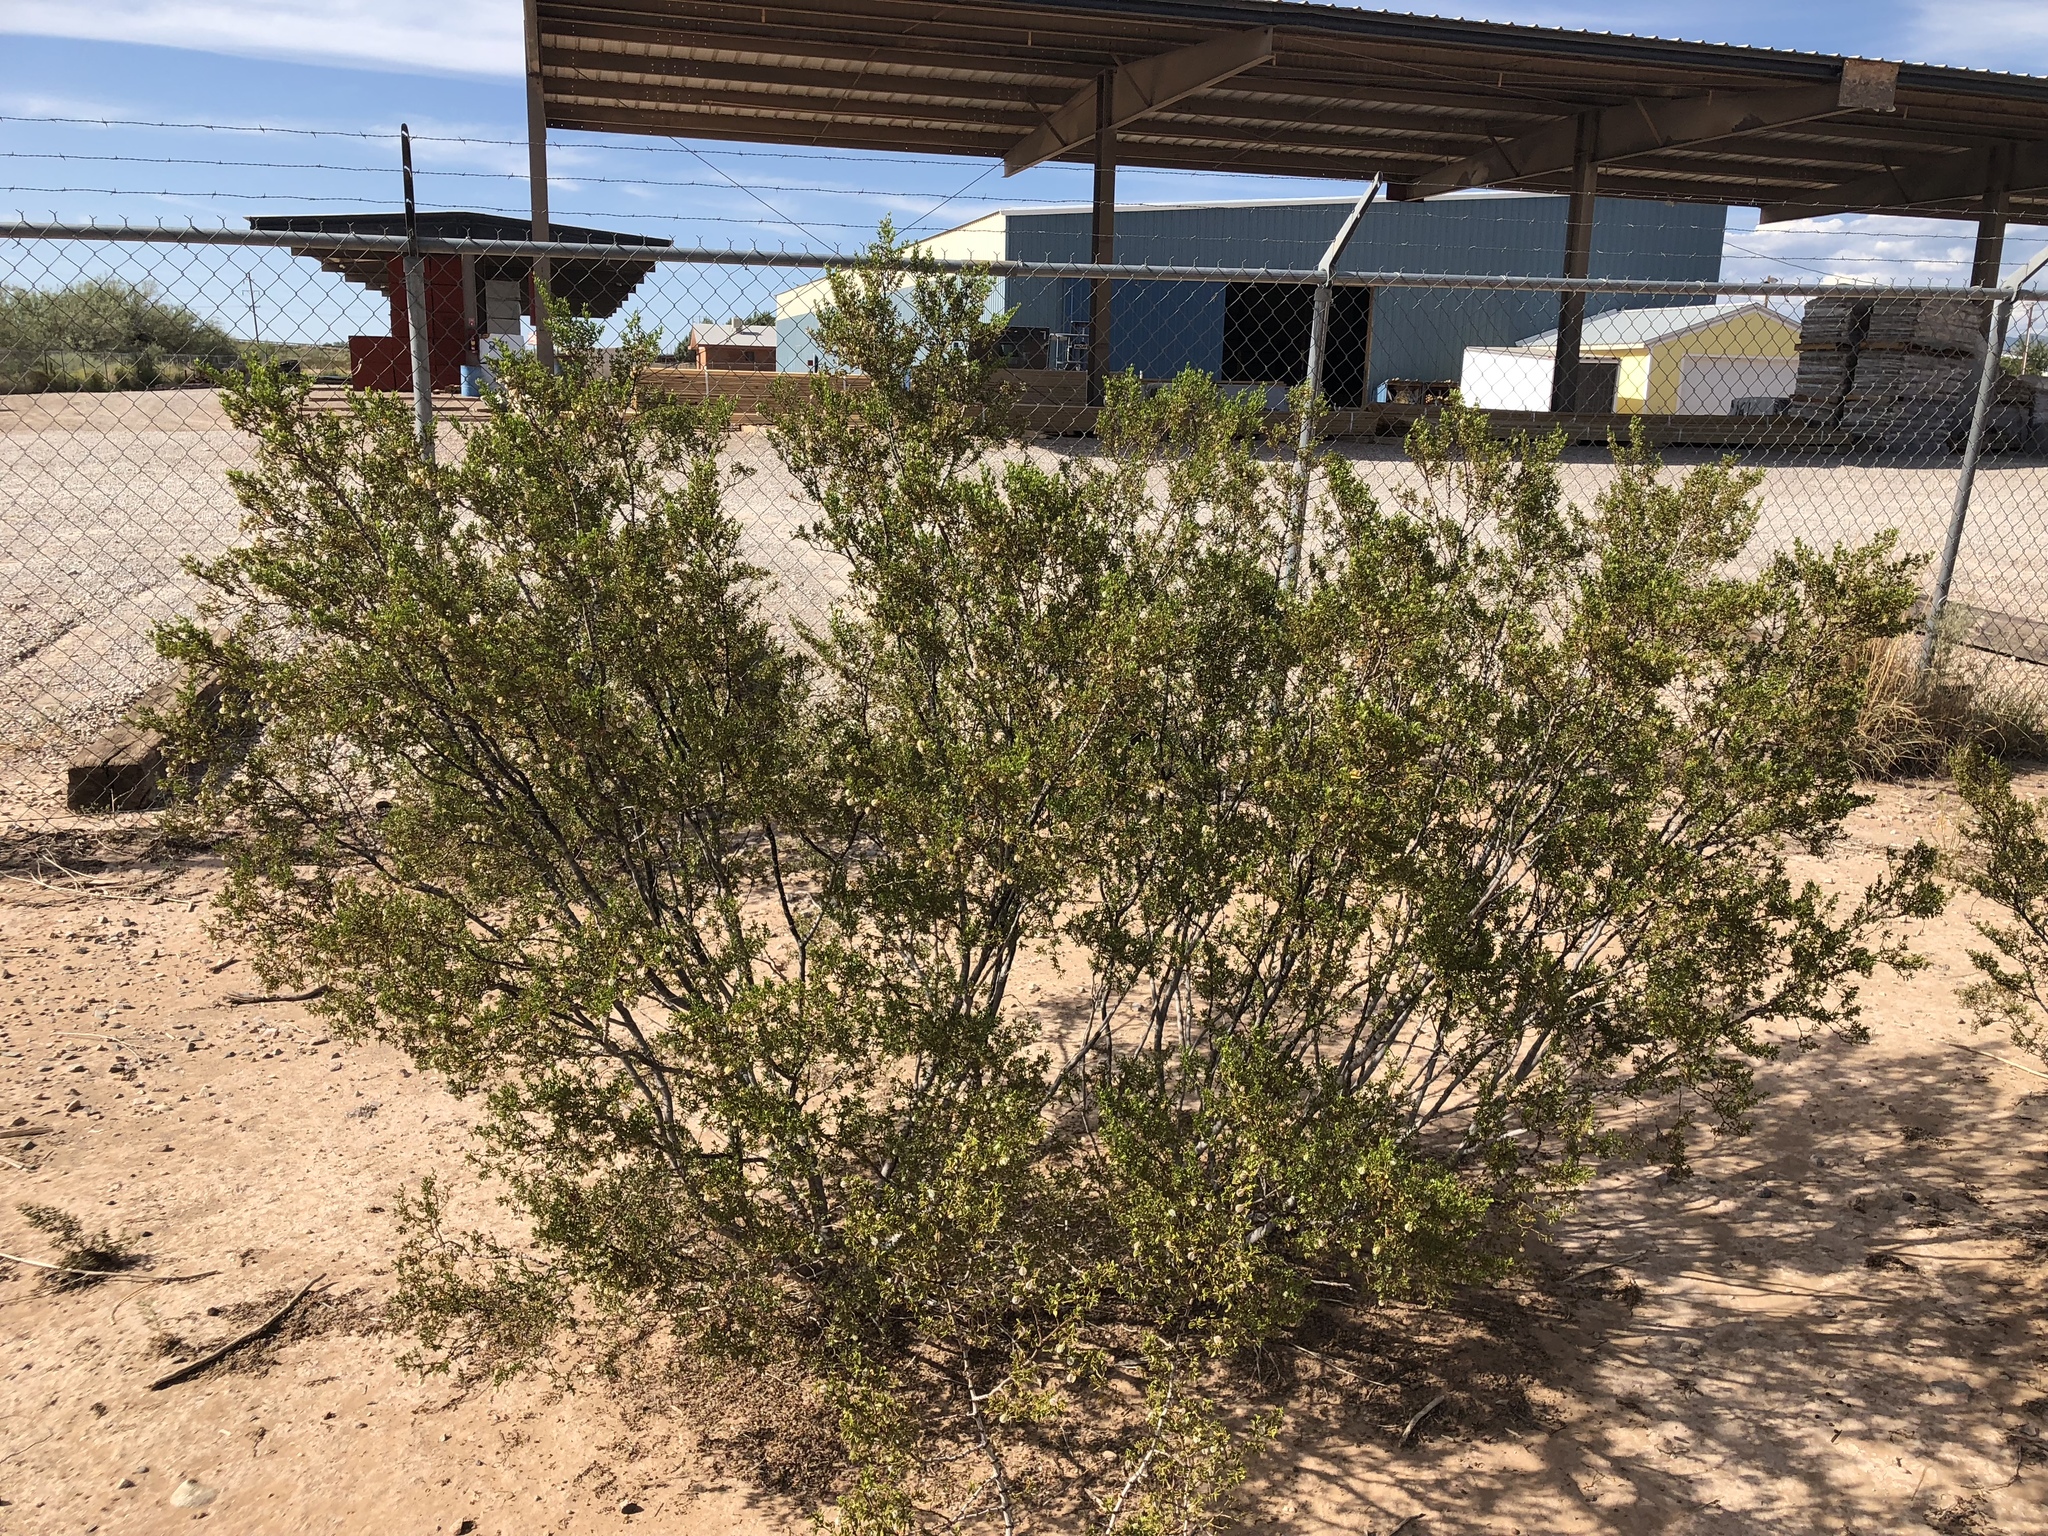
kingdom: Plantae
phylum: Tracheophyta
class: Magnoliopsida
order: Zygophyllales
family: Zygophyllaceae
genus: Larrea
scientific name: Larrea tridentata
